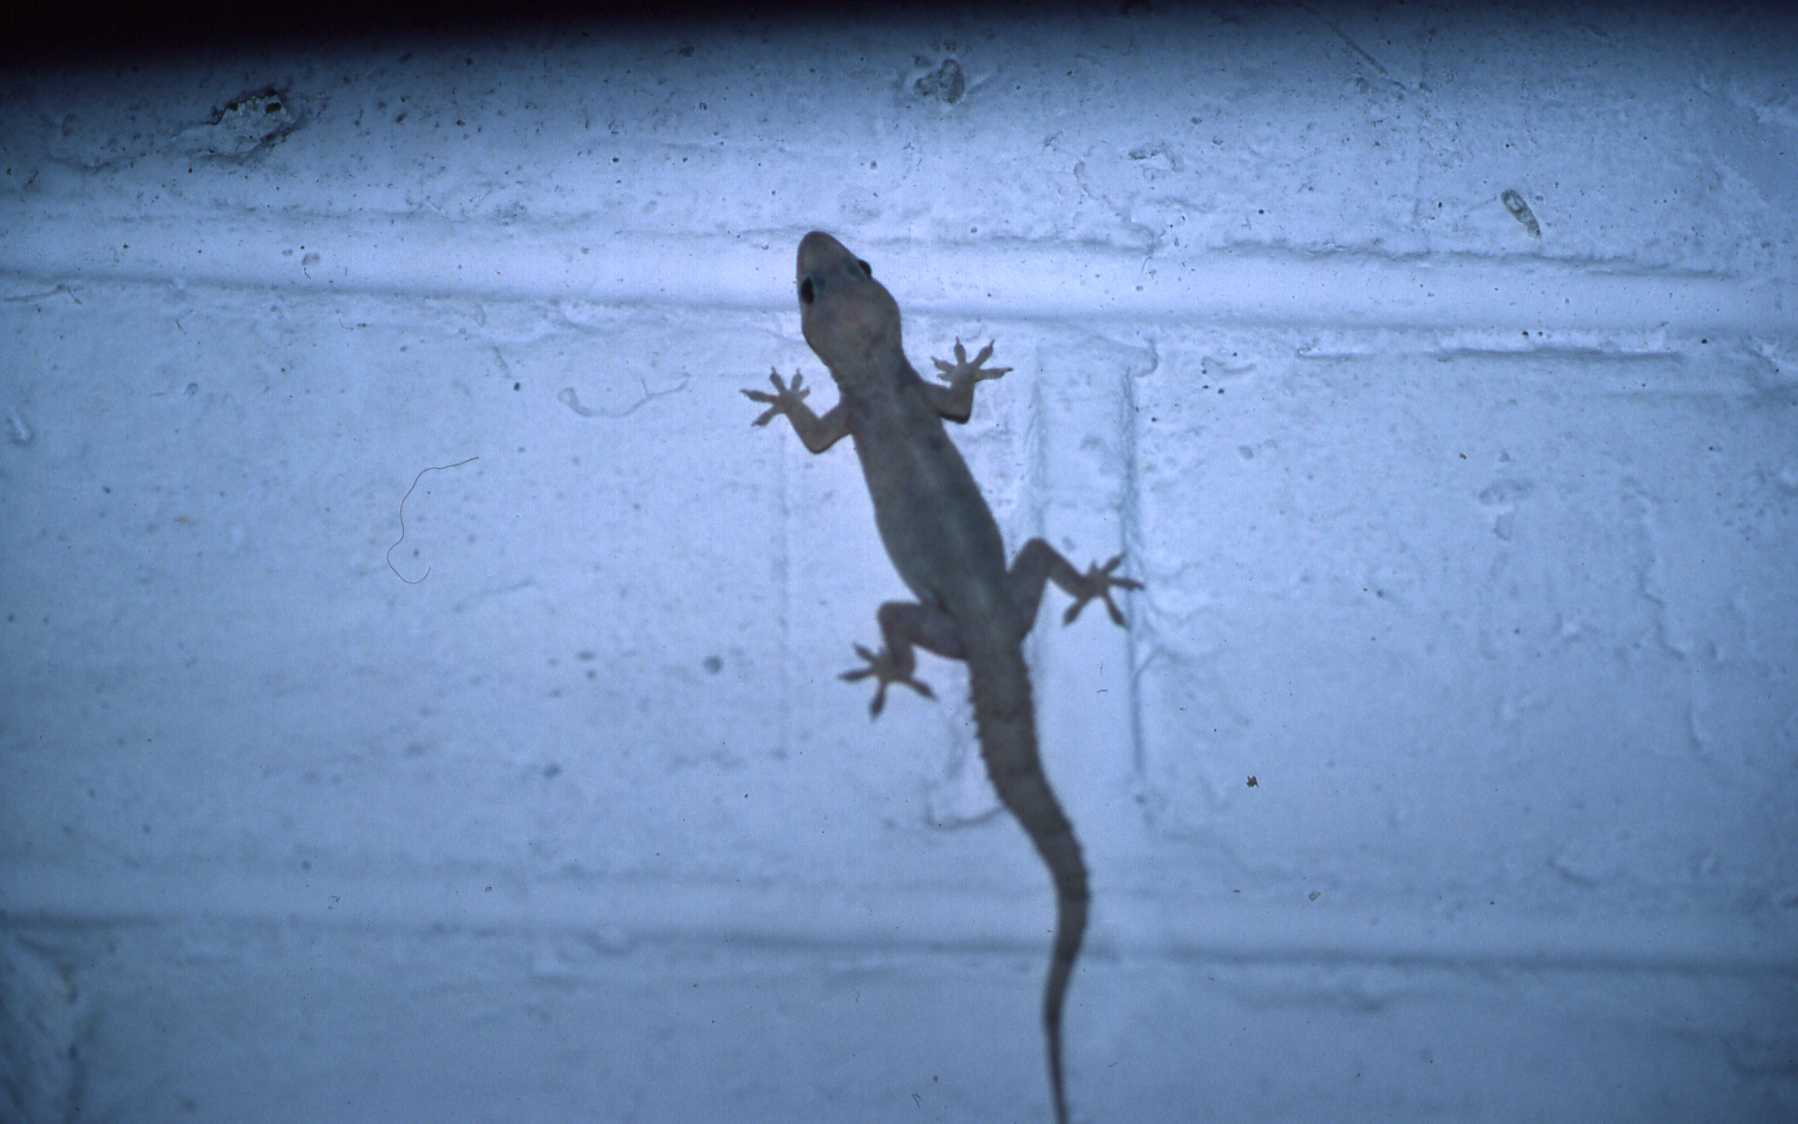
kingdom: Animalia
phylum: Chordata
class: Squamata
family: Gekkonidae
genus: Hemidactylus
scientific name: Hemidactylus mabouia
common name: House gecko
